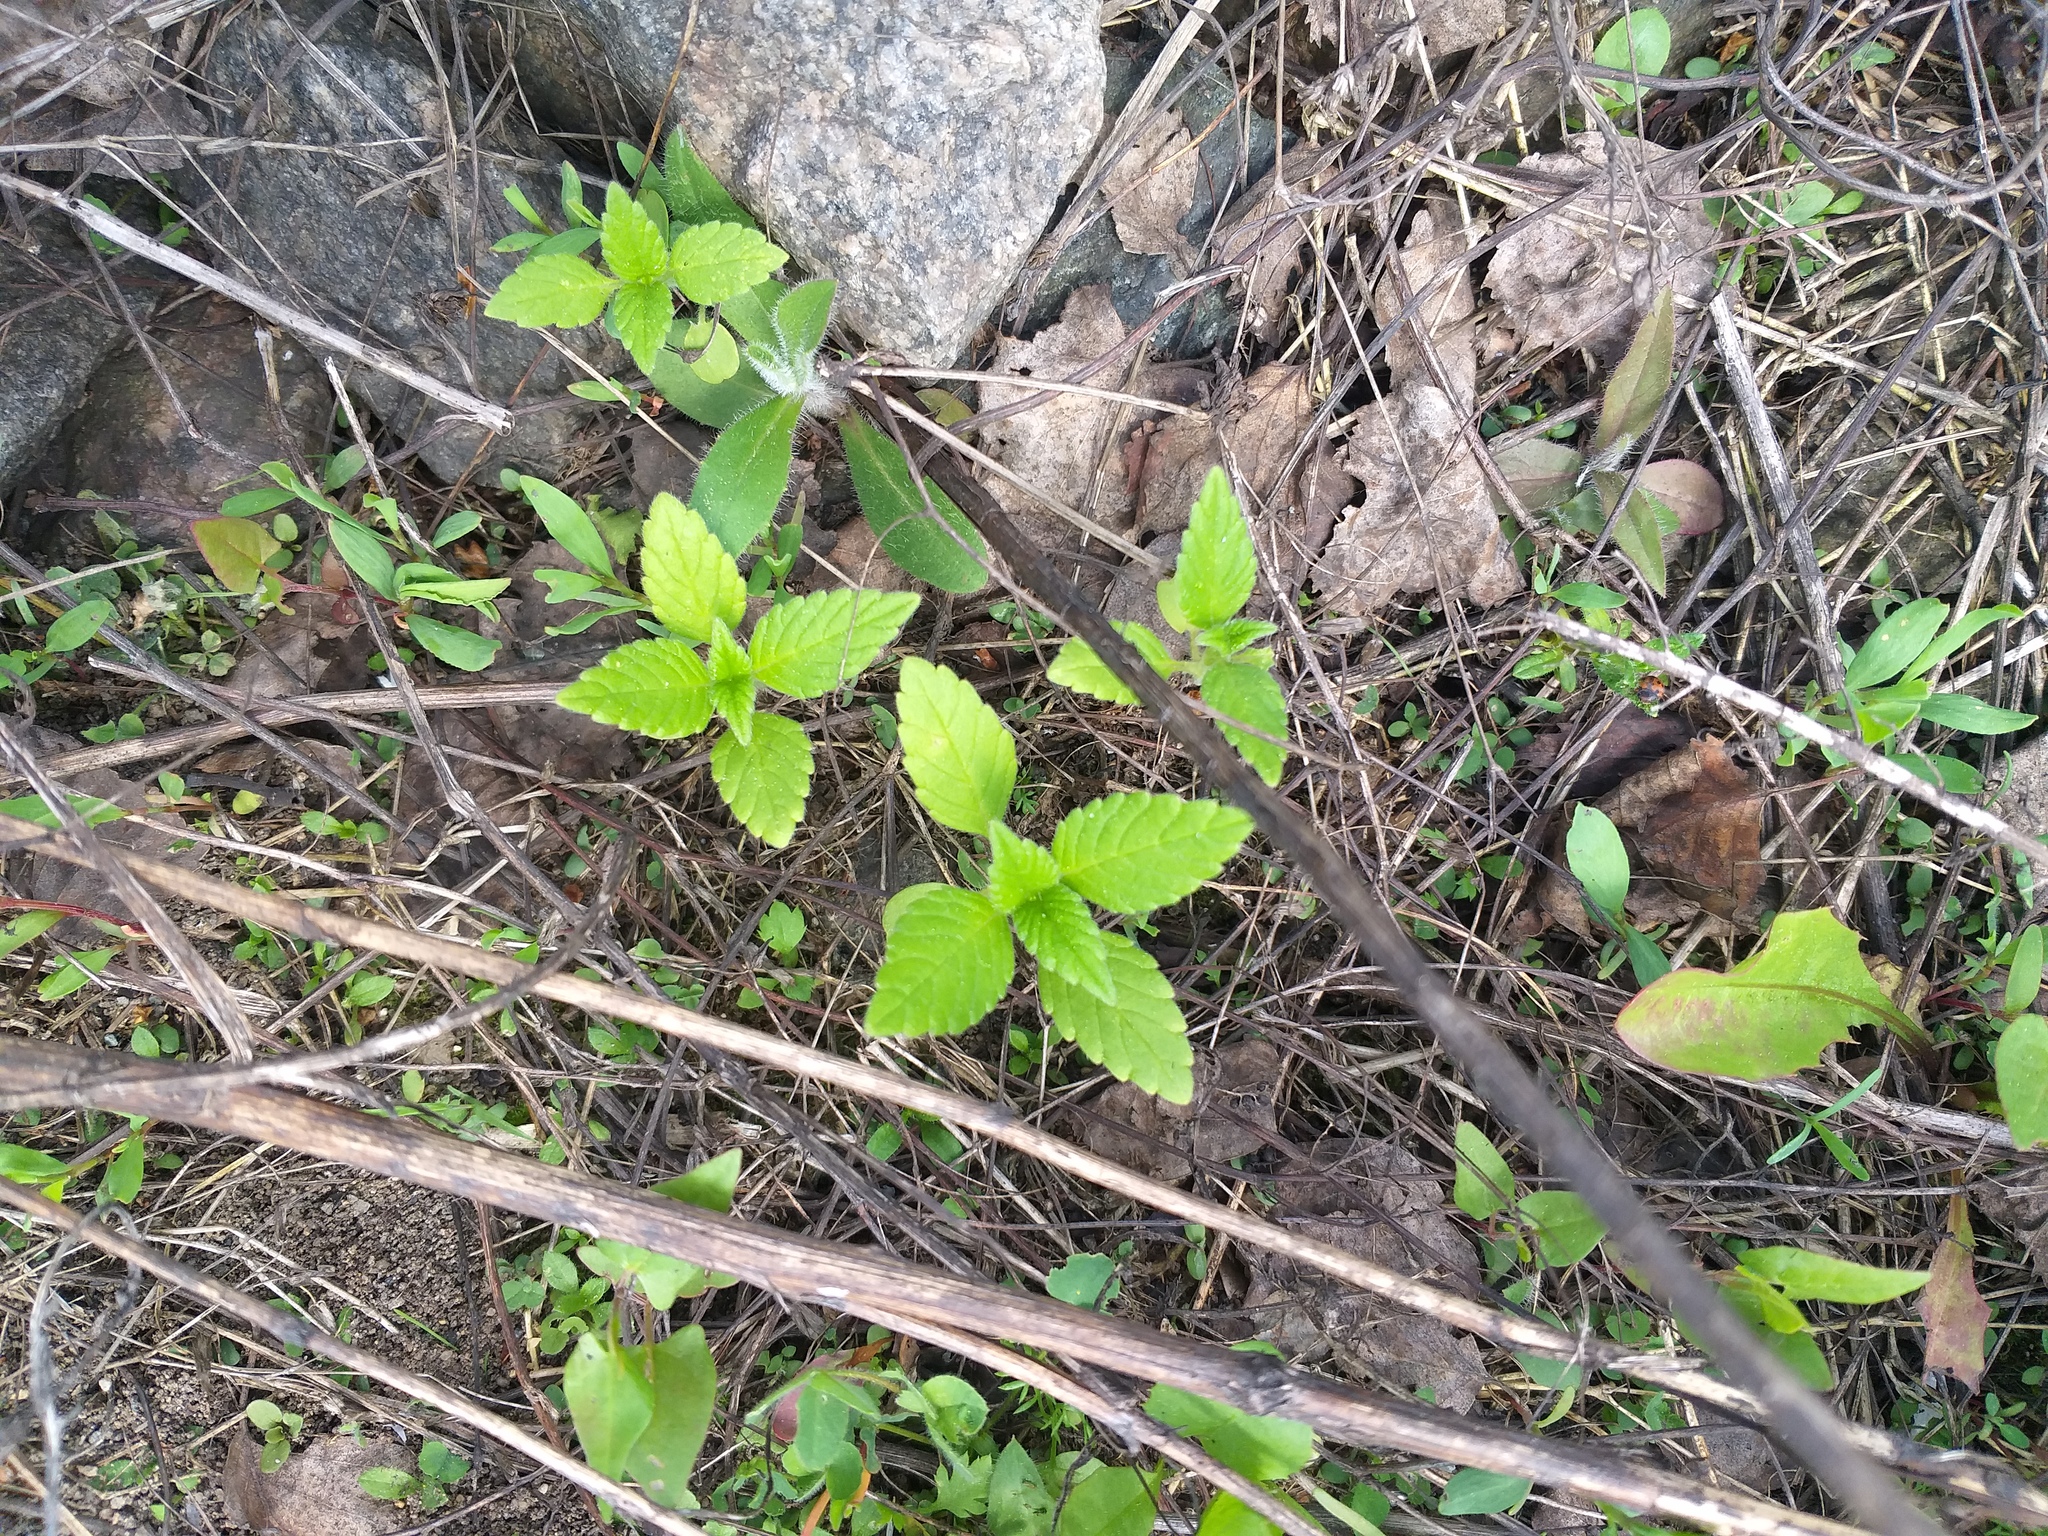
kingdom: Plantae
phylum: Tracheophyta
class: Magnoliopsida
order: Lamiales
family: Lamiaceae
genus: Galeopsis
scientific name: Galeopsis
